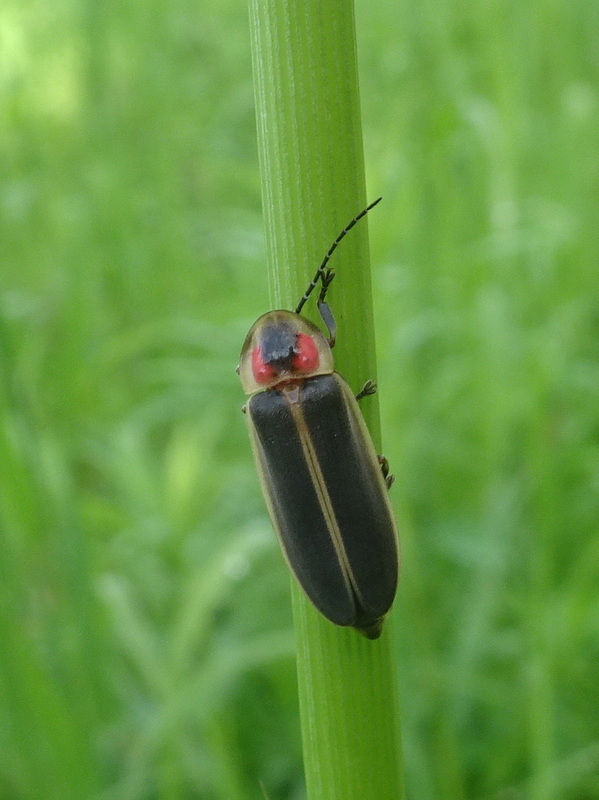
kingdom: Animalia
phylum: Arthropoda
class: Insecta
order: Coleoptera
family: Lampyridae
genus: Photinus
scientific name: Photinus pyralis
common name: Big dipper firefly
